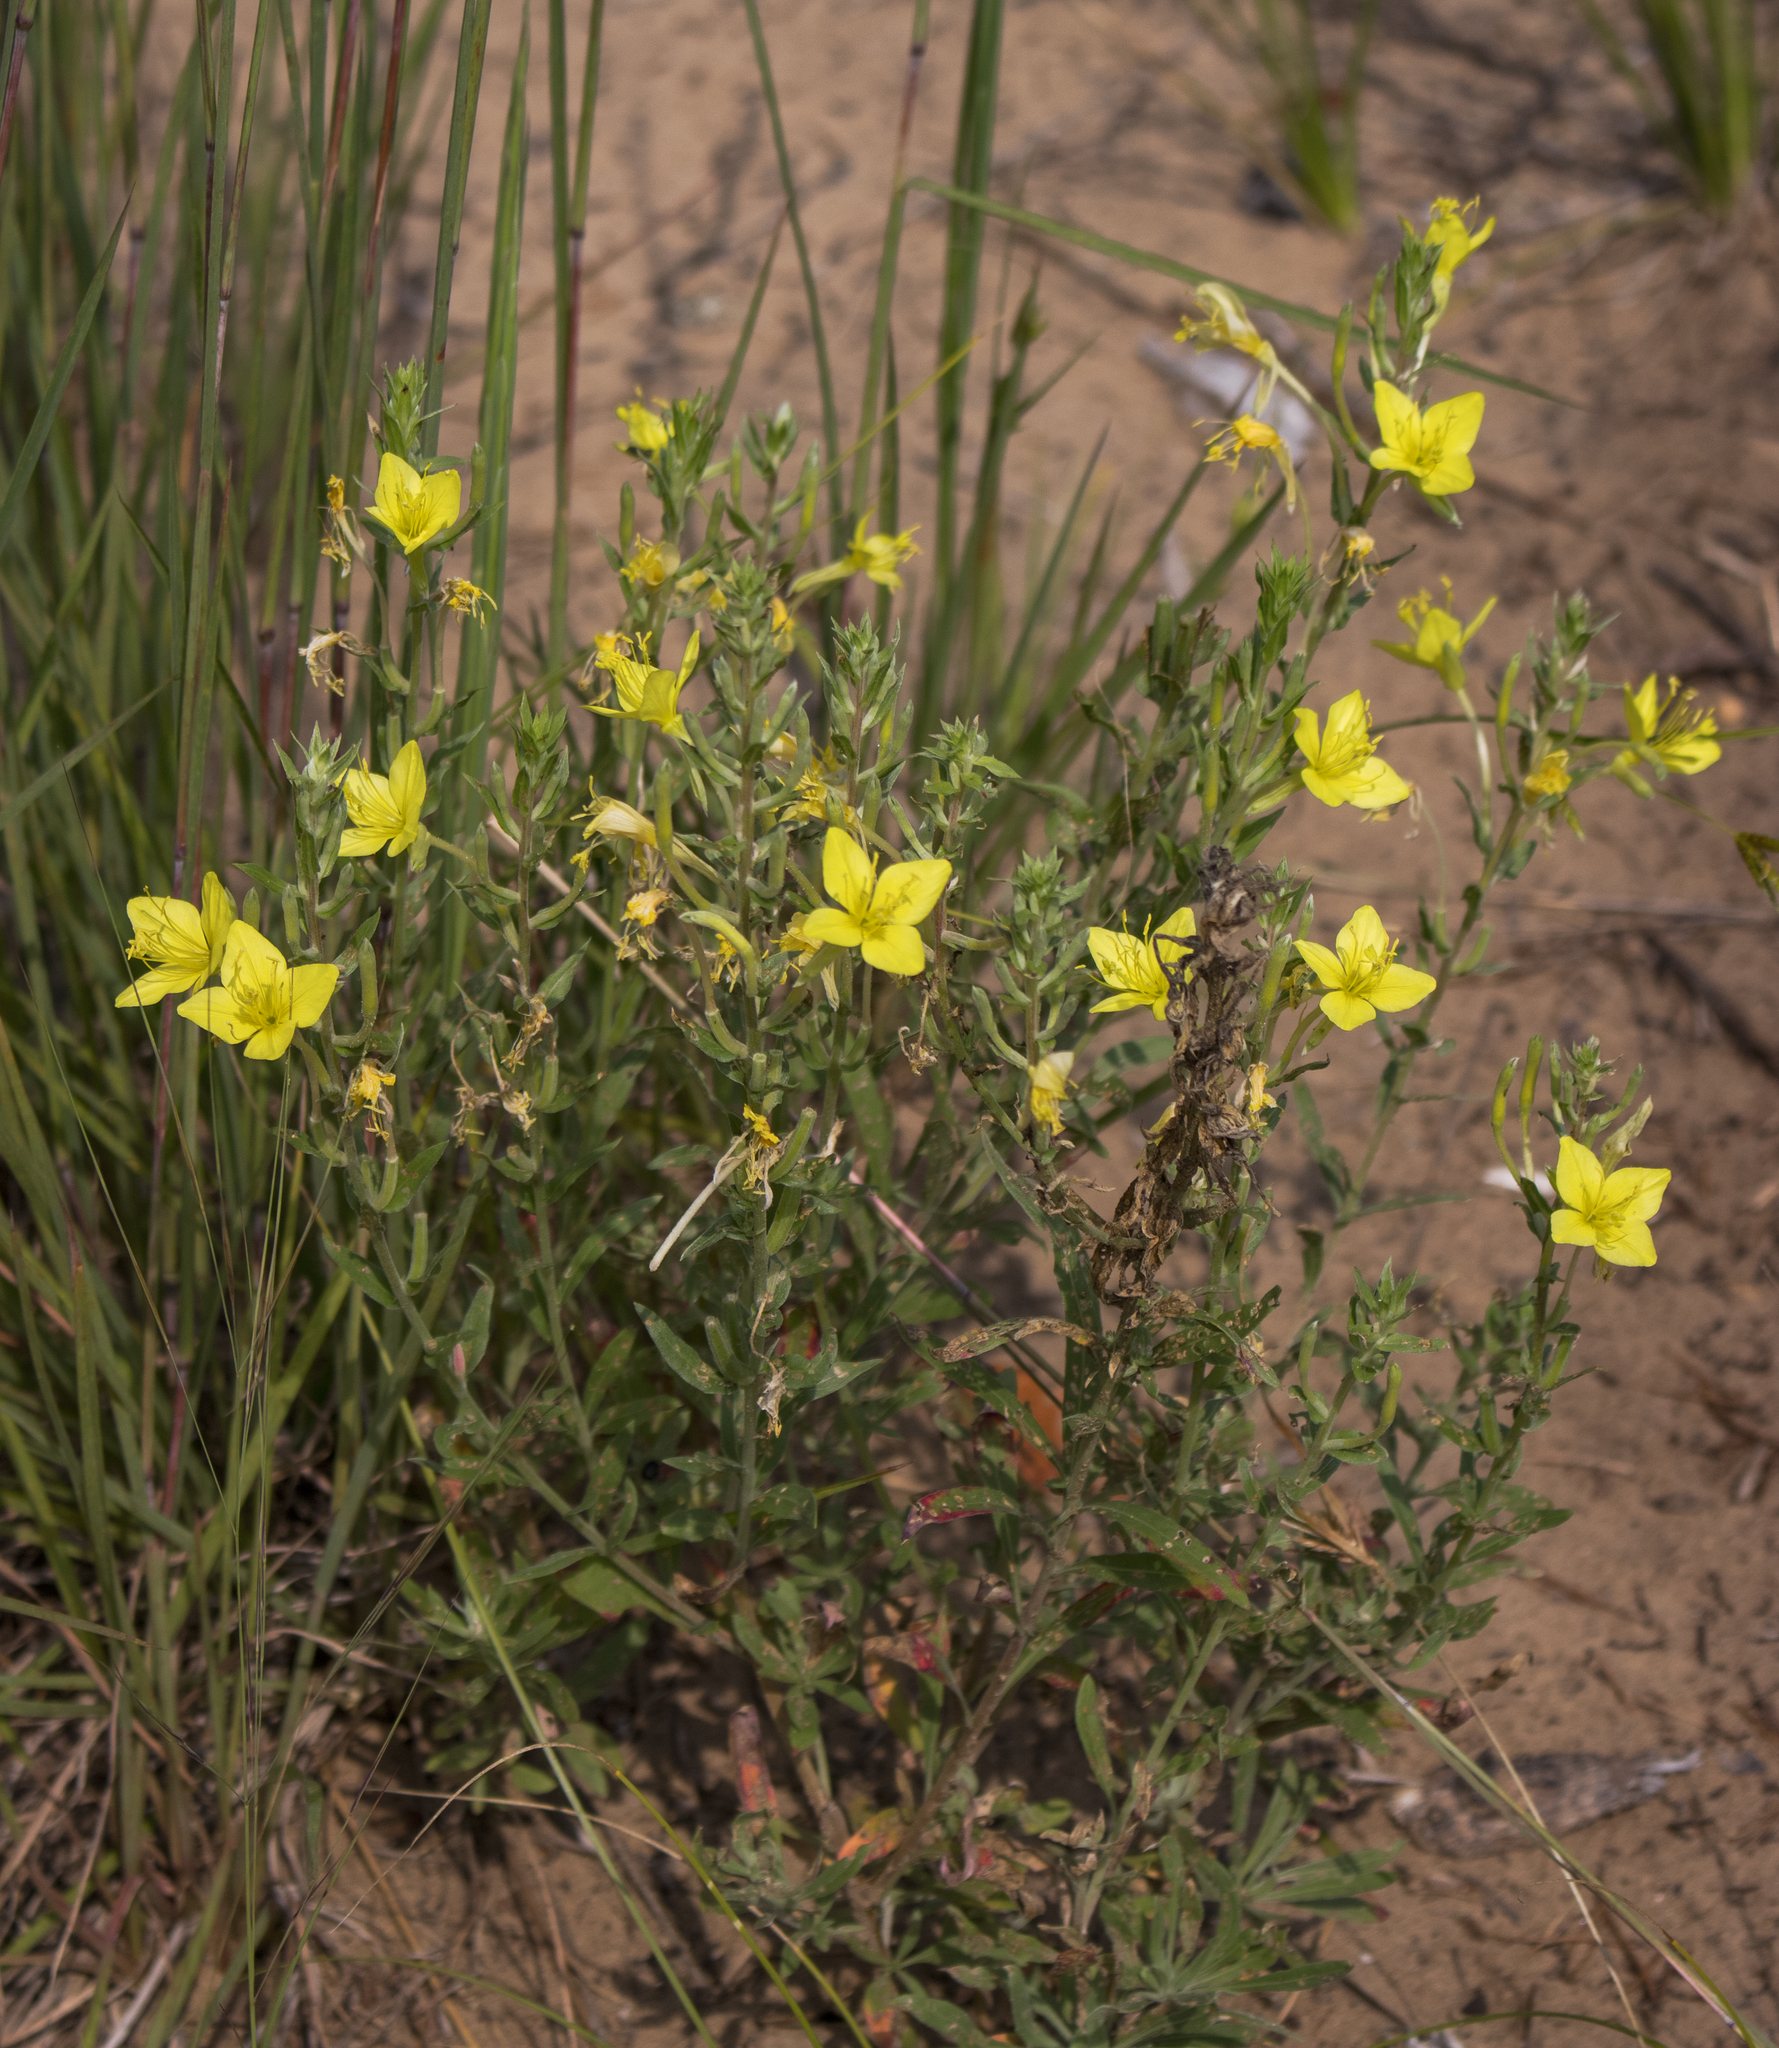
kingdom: Plantae
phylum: Tracheophyta
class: Magnoliopsida
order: Myrtales
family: Onagraceae
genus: Oenothera
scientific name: Oenothera clelandii
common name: Cleland's evening-primrose
